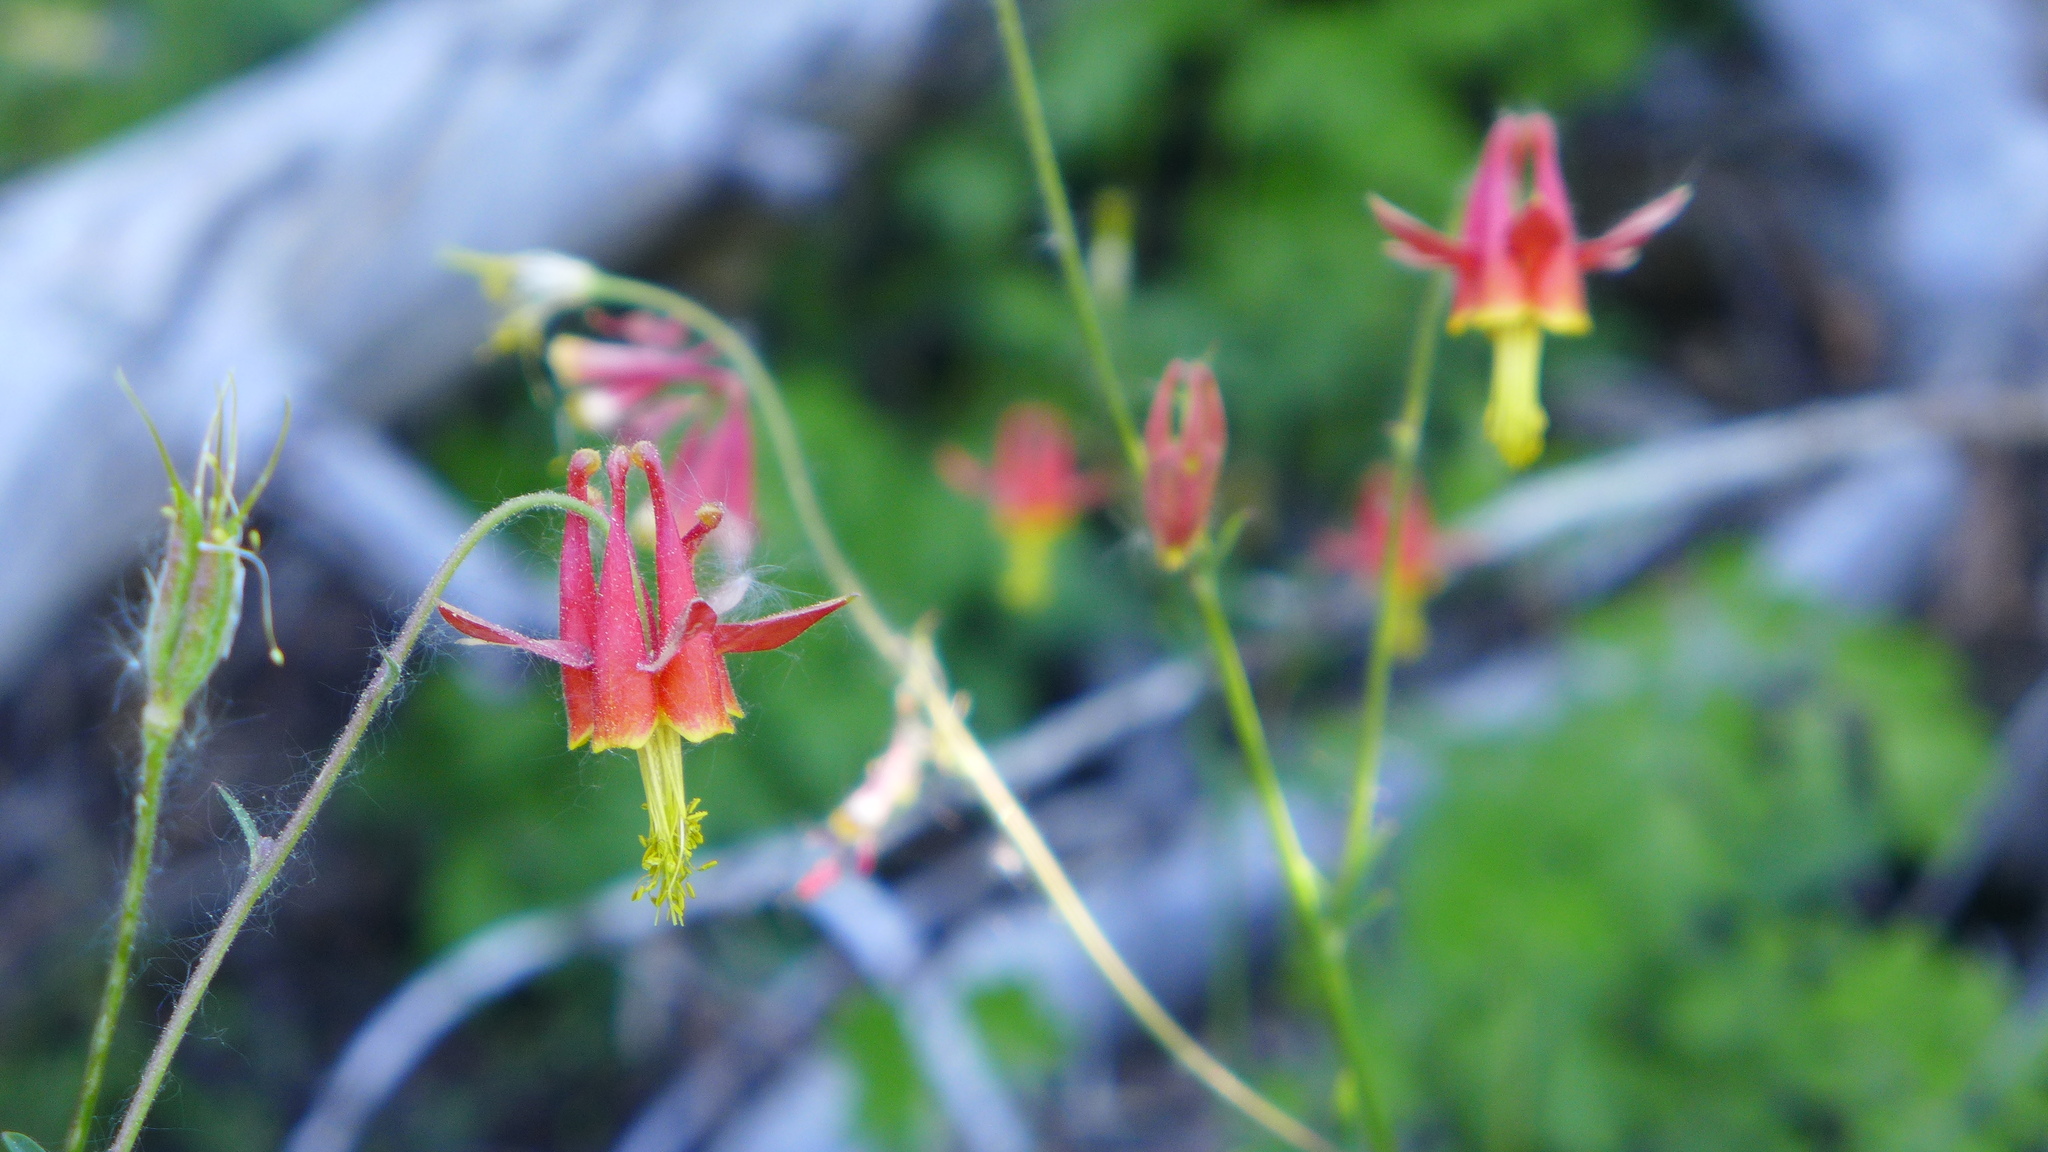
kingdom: Plantae
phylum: Tracheophyta
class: Magnoliopsida
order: Ranunculales
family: Ranunculaceae
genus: Aquilegia
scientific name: Aquilegia formosa
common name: Sitka columbine
